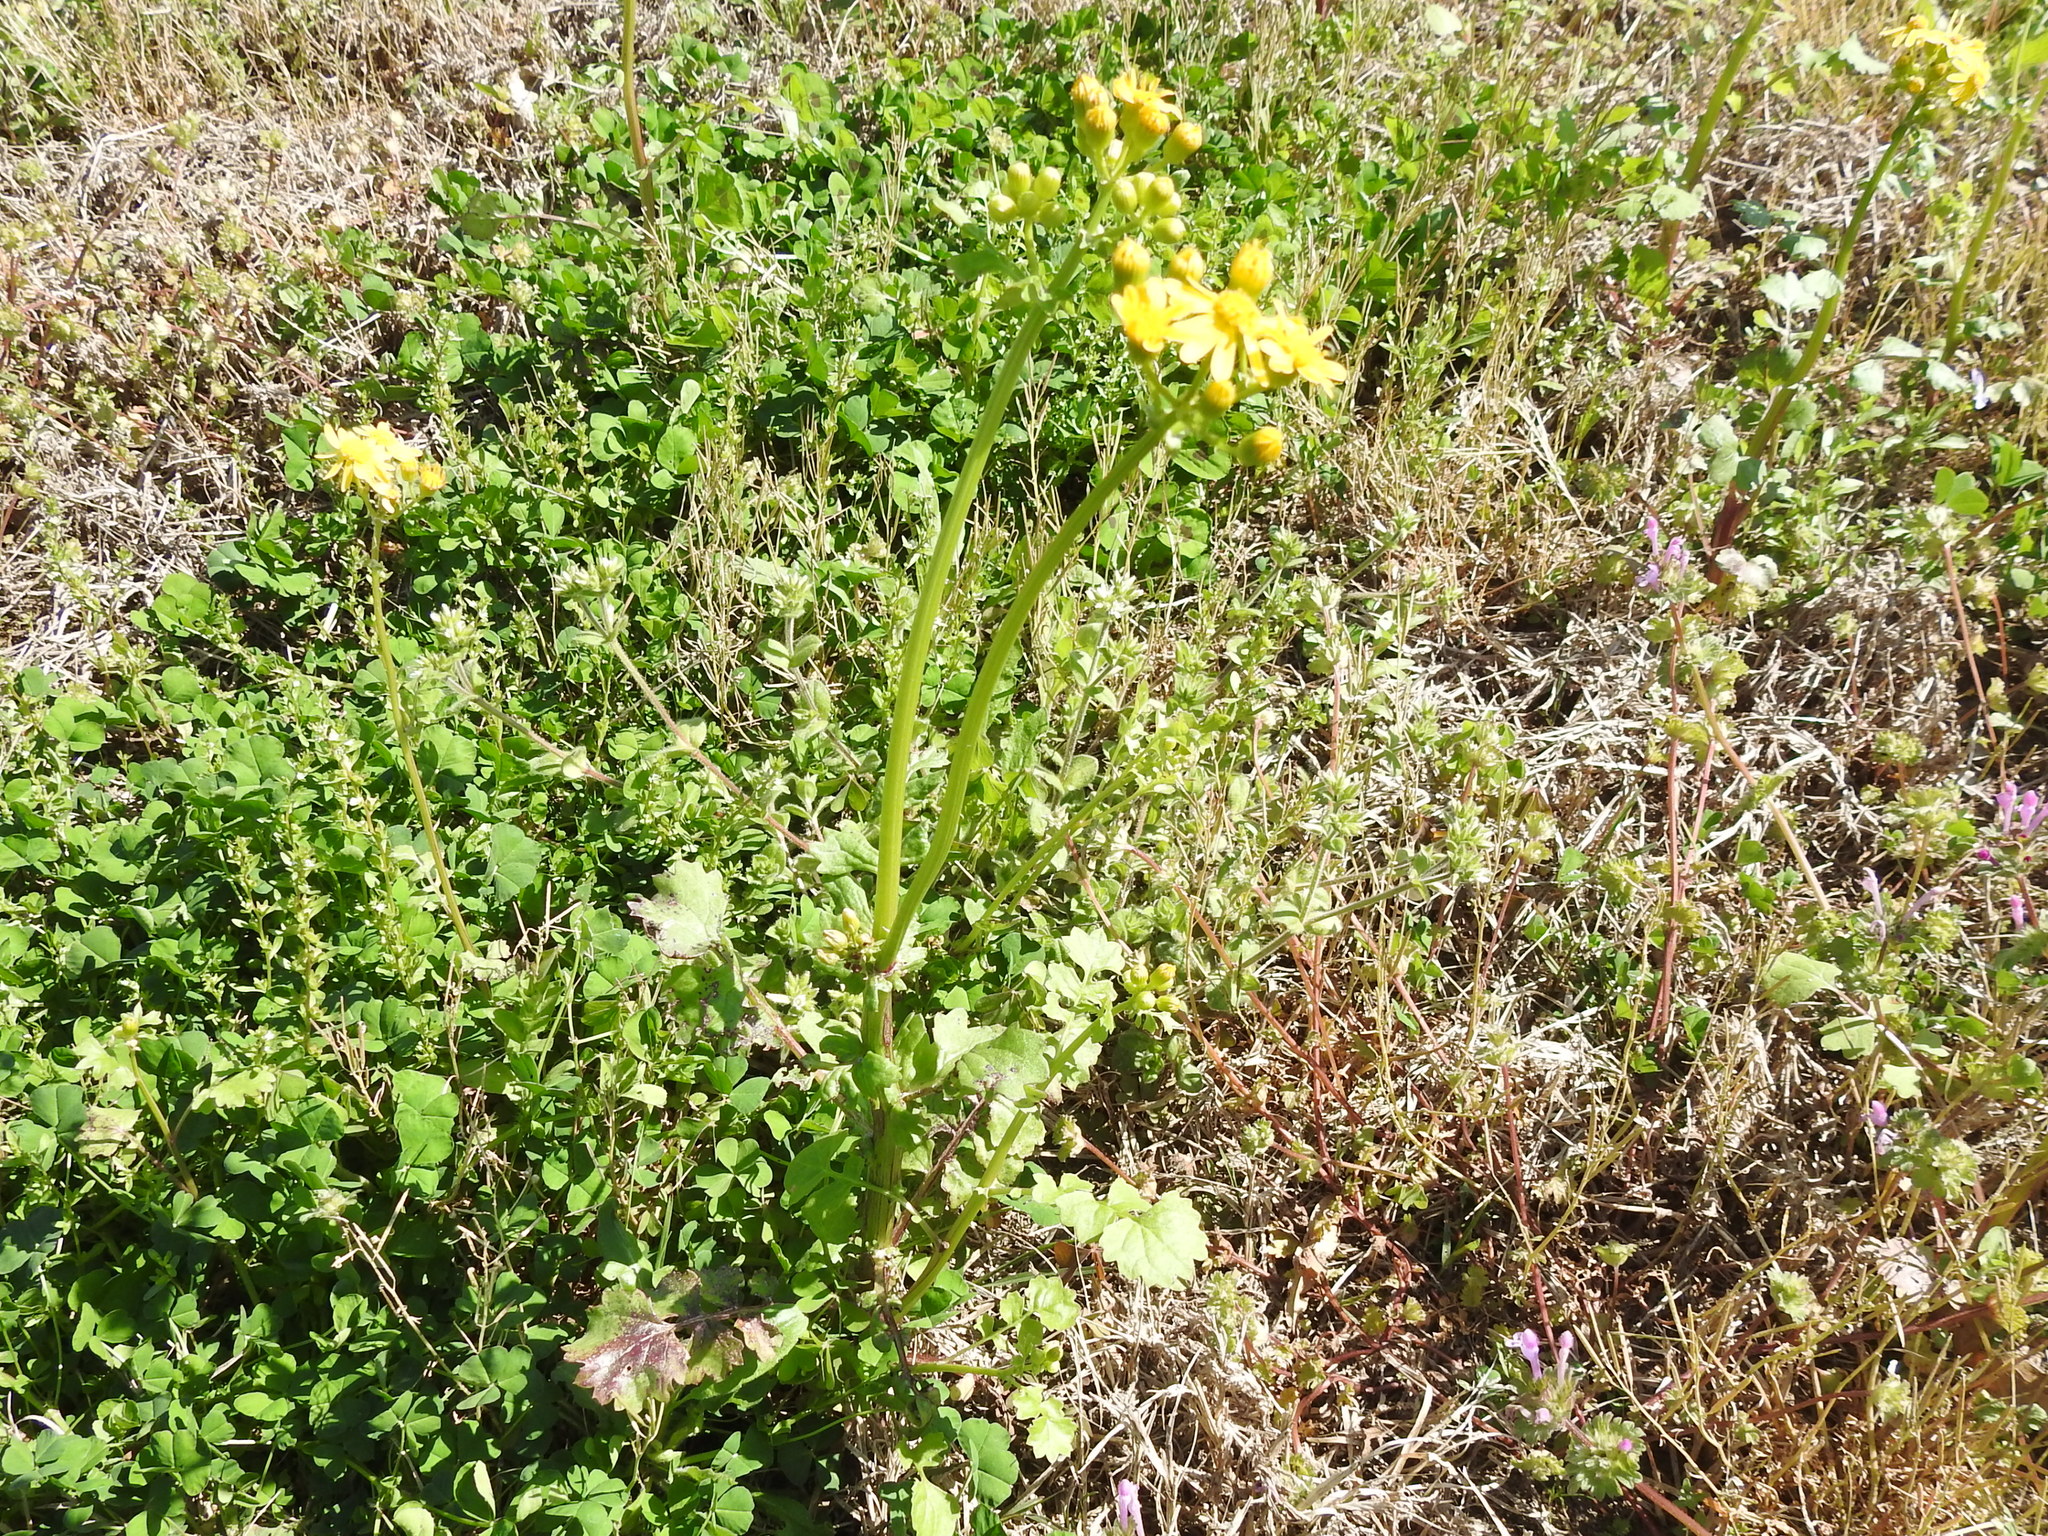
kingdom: Plantae
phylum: Tracheophyta
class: Magnoliopsida
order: Asterales
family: Asteraceae
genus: Packera
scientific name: Packera tampicana
